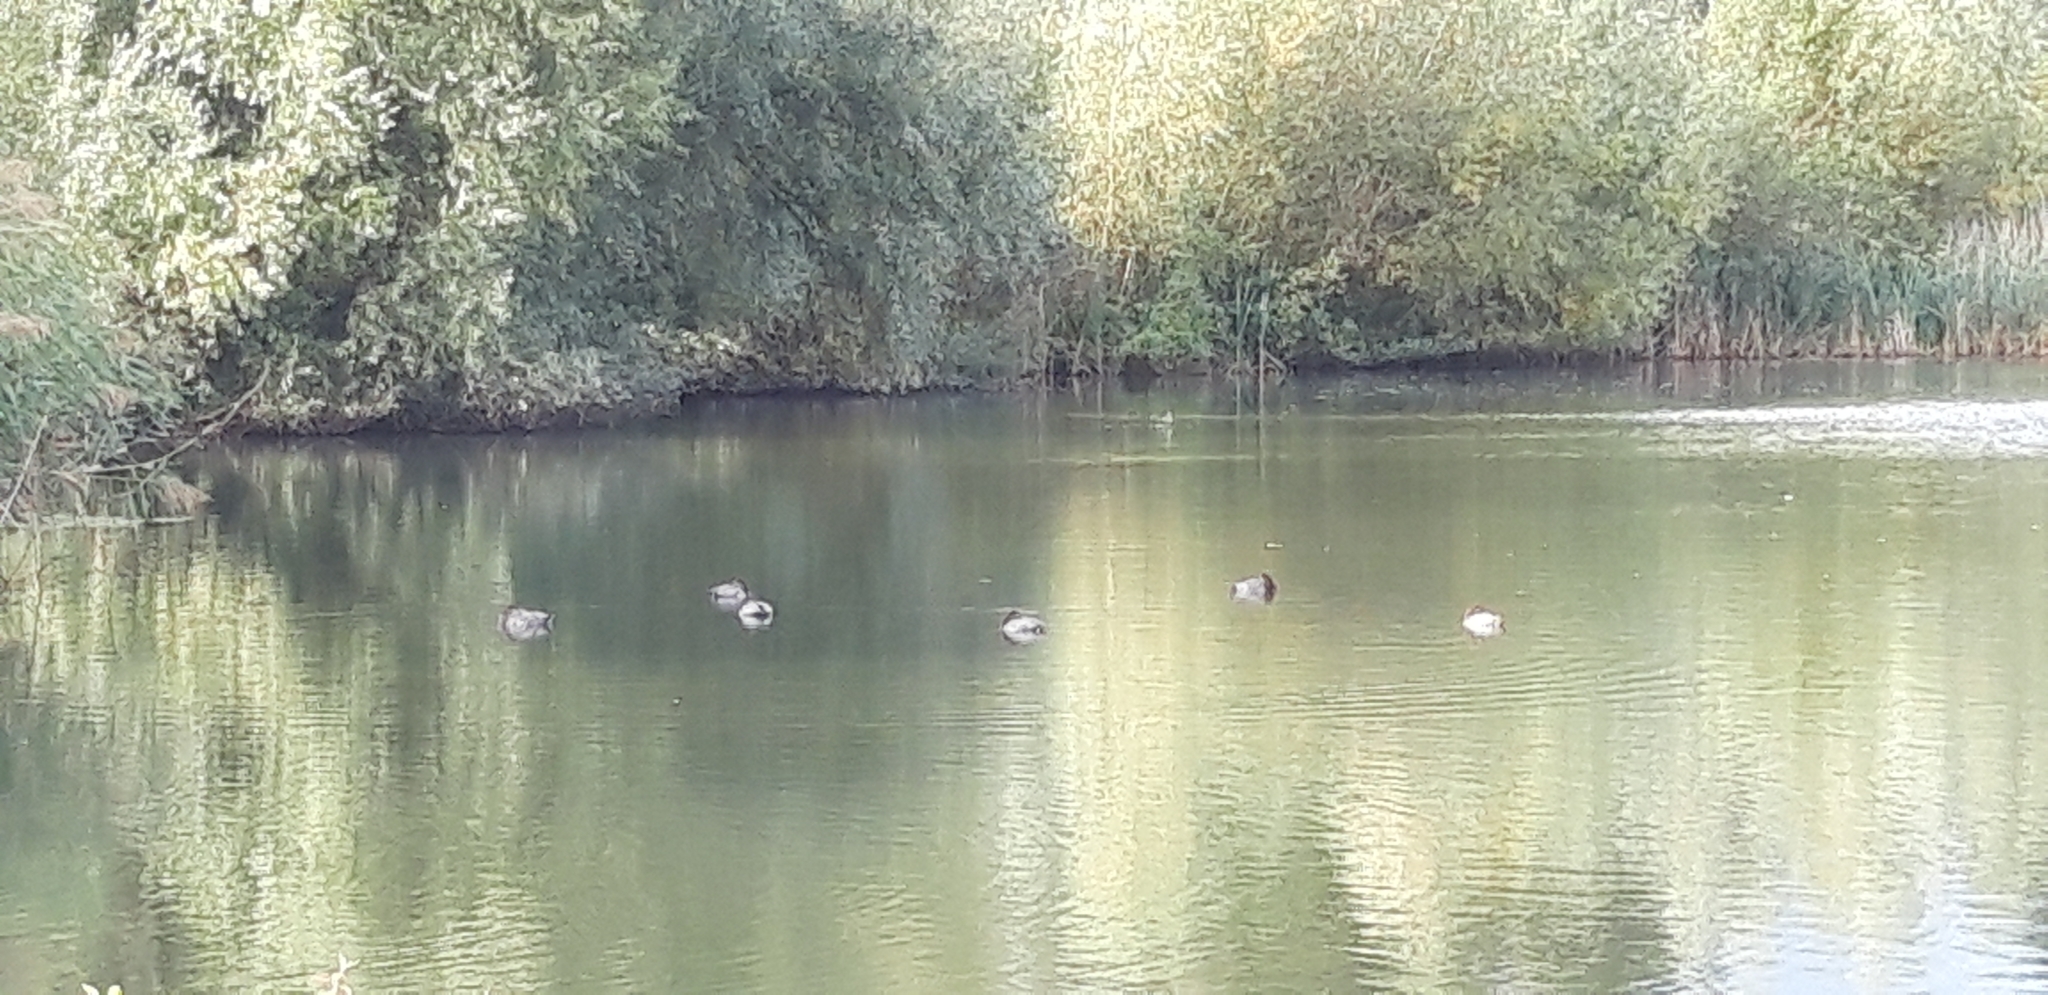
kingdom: Animalia
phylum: Chordata
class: Aves
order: Anseriformes
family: Anatidae
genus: Aythya
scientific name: Aythya ferina
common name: Common pochard
